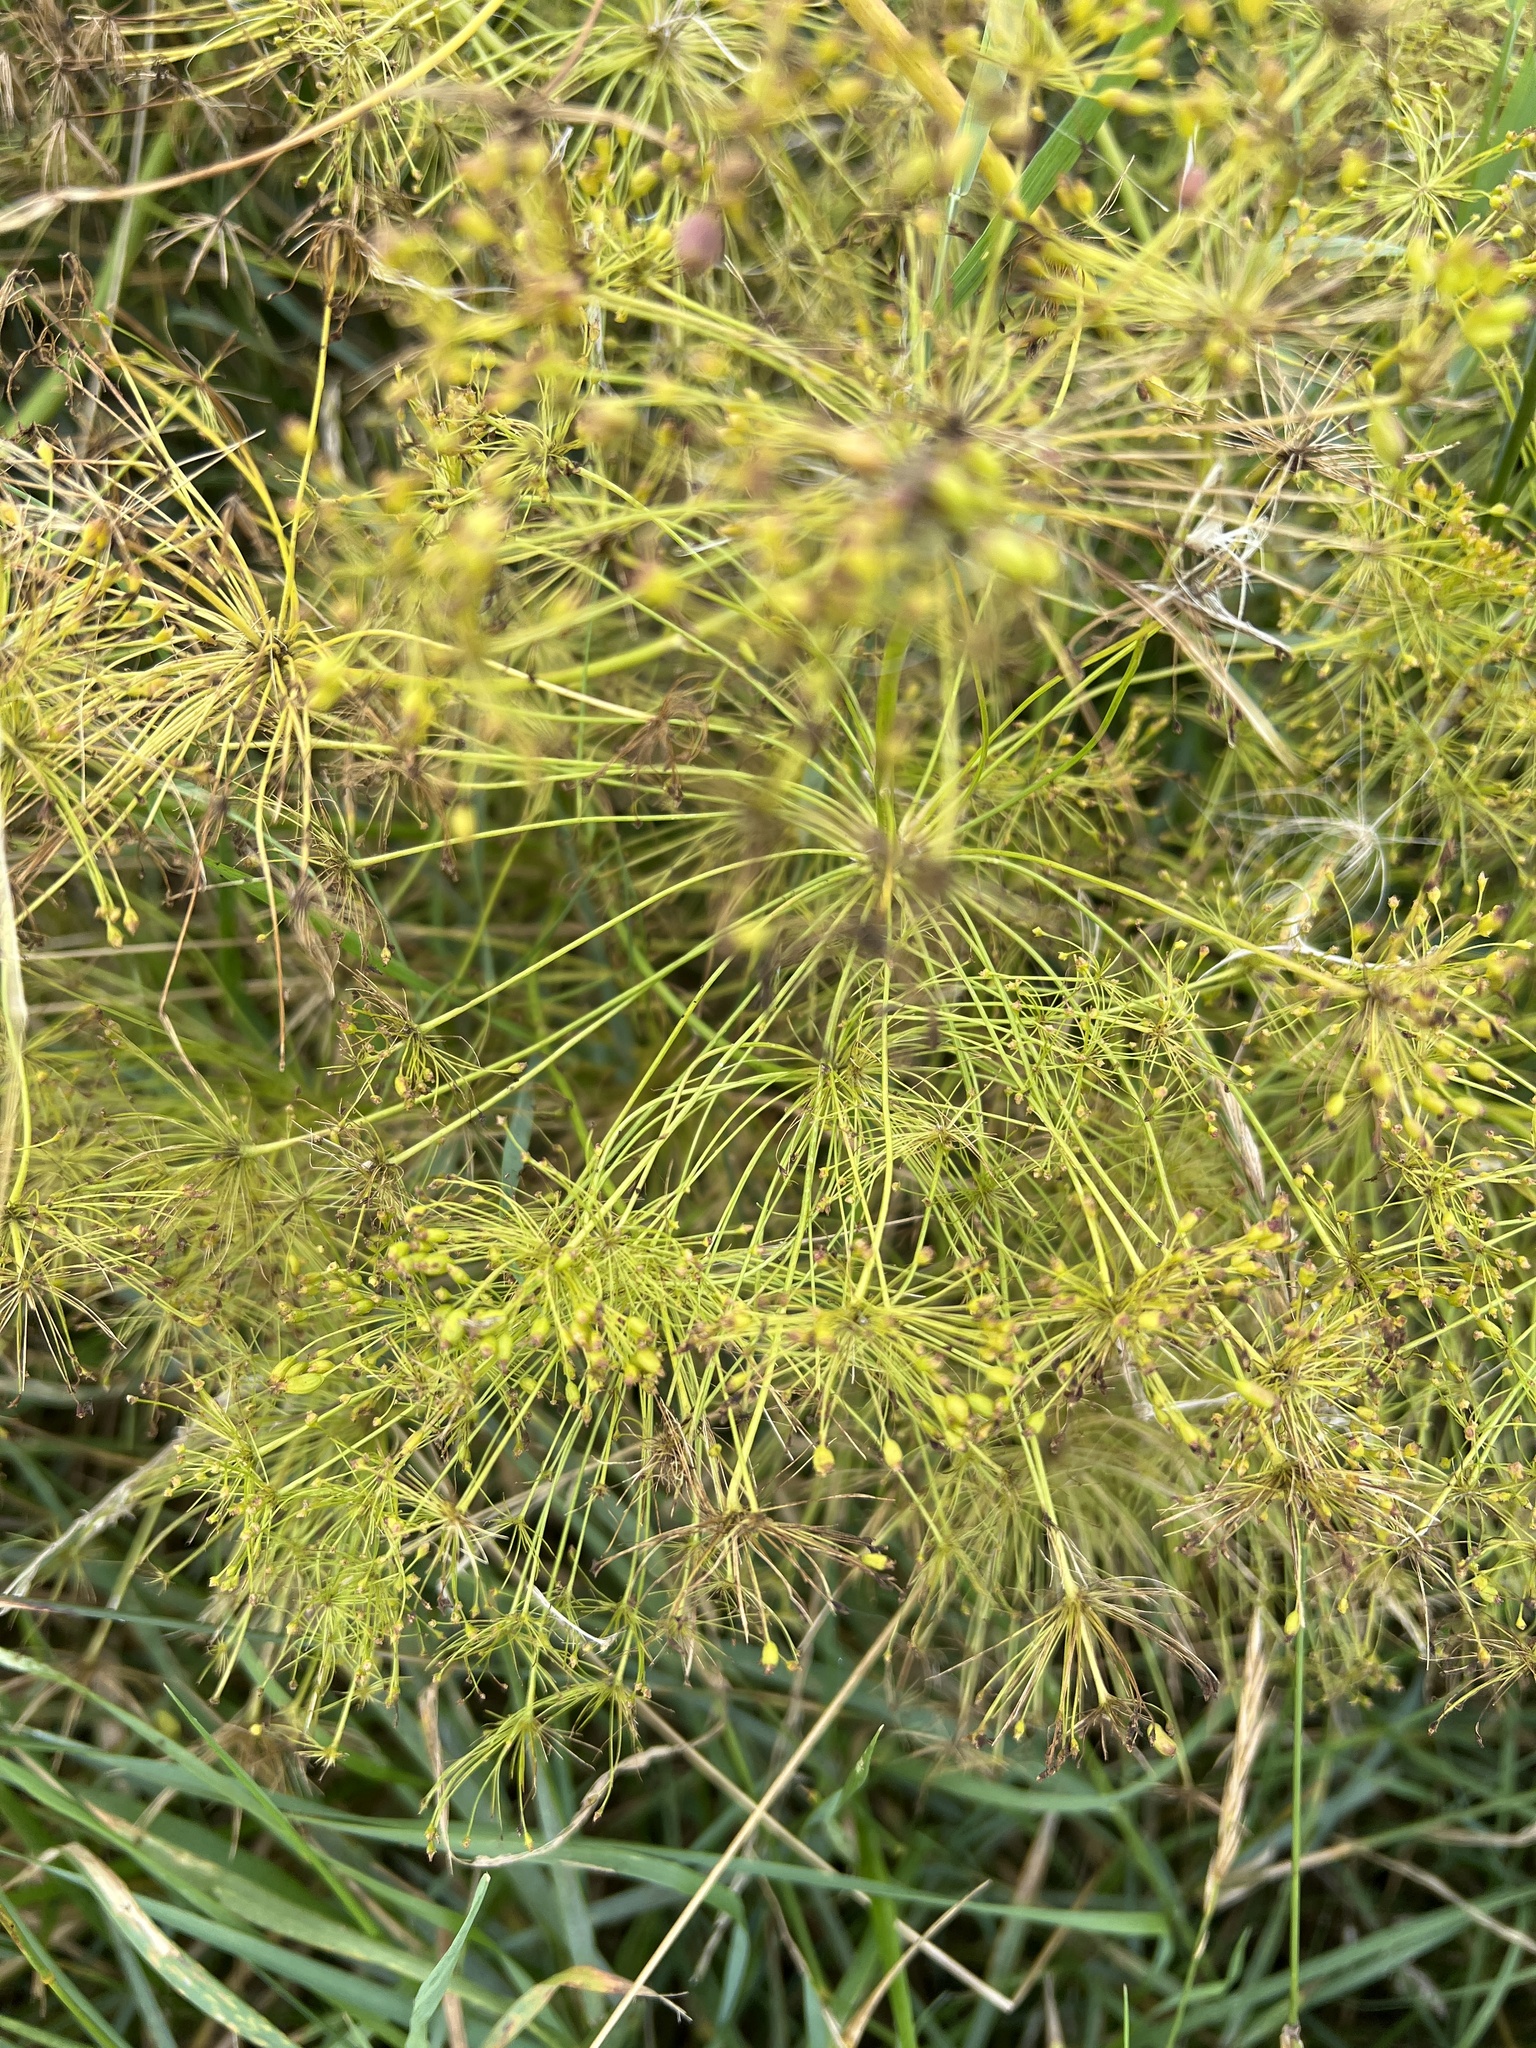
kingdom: Plantae
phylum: Tracheophyta
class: Magnoliopsida
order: Apiales
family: Apiaceae
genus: Peucedanum
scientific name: Peucedanum officinale
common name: Sulphurweed
